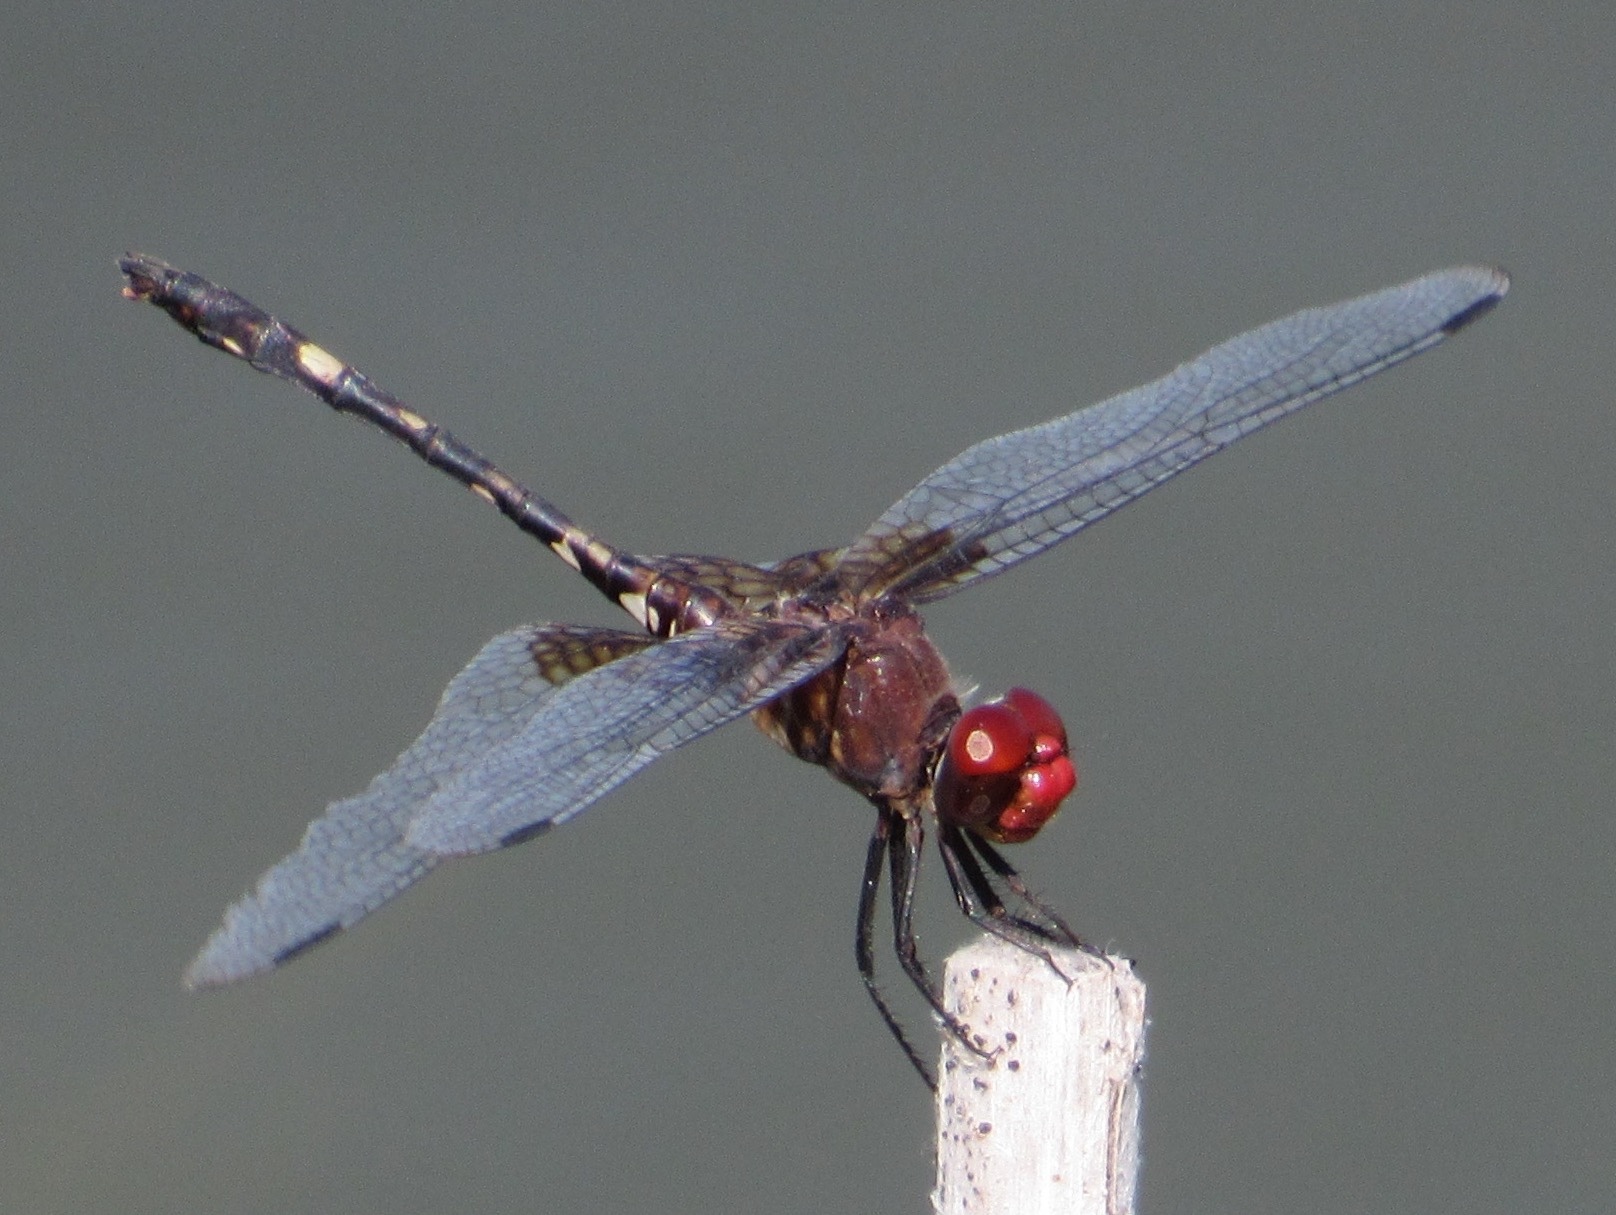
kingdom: Animalia
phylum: Arthropoda
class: Insecta
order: Odonata
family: Libellulidae
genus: Dythemis
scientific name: Dythemis fugax
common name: Checkered setwing
